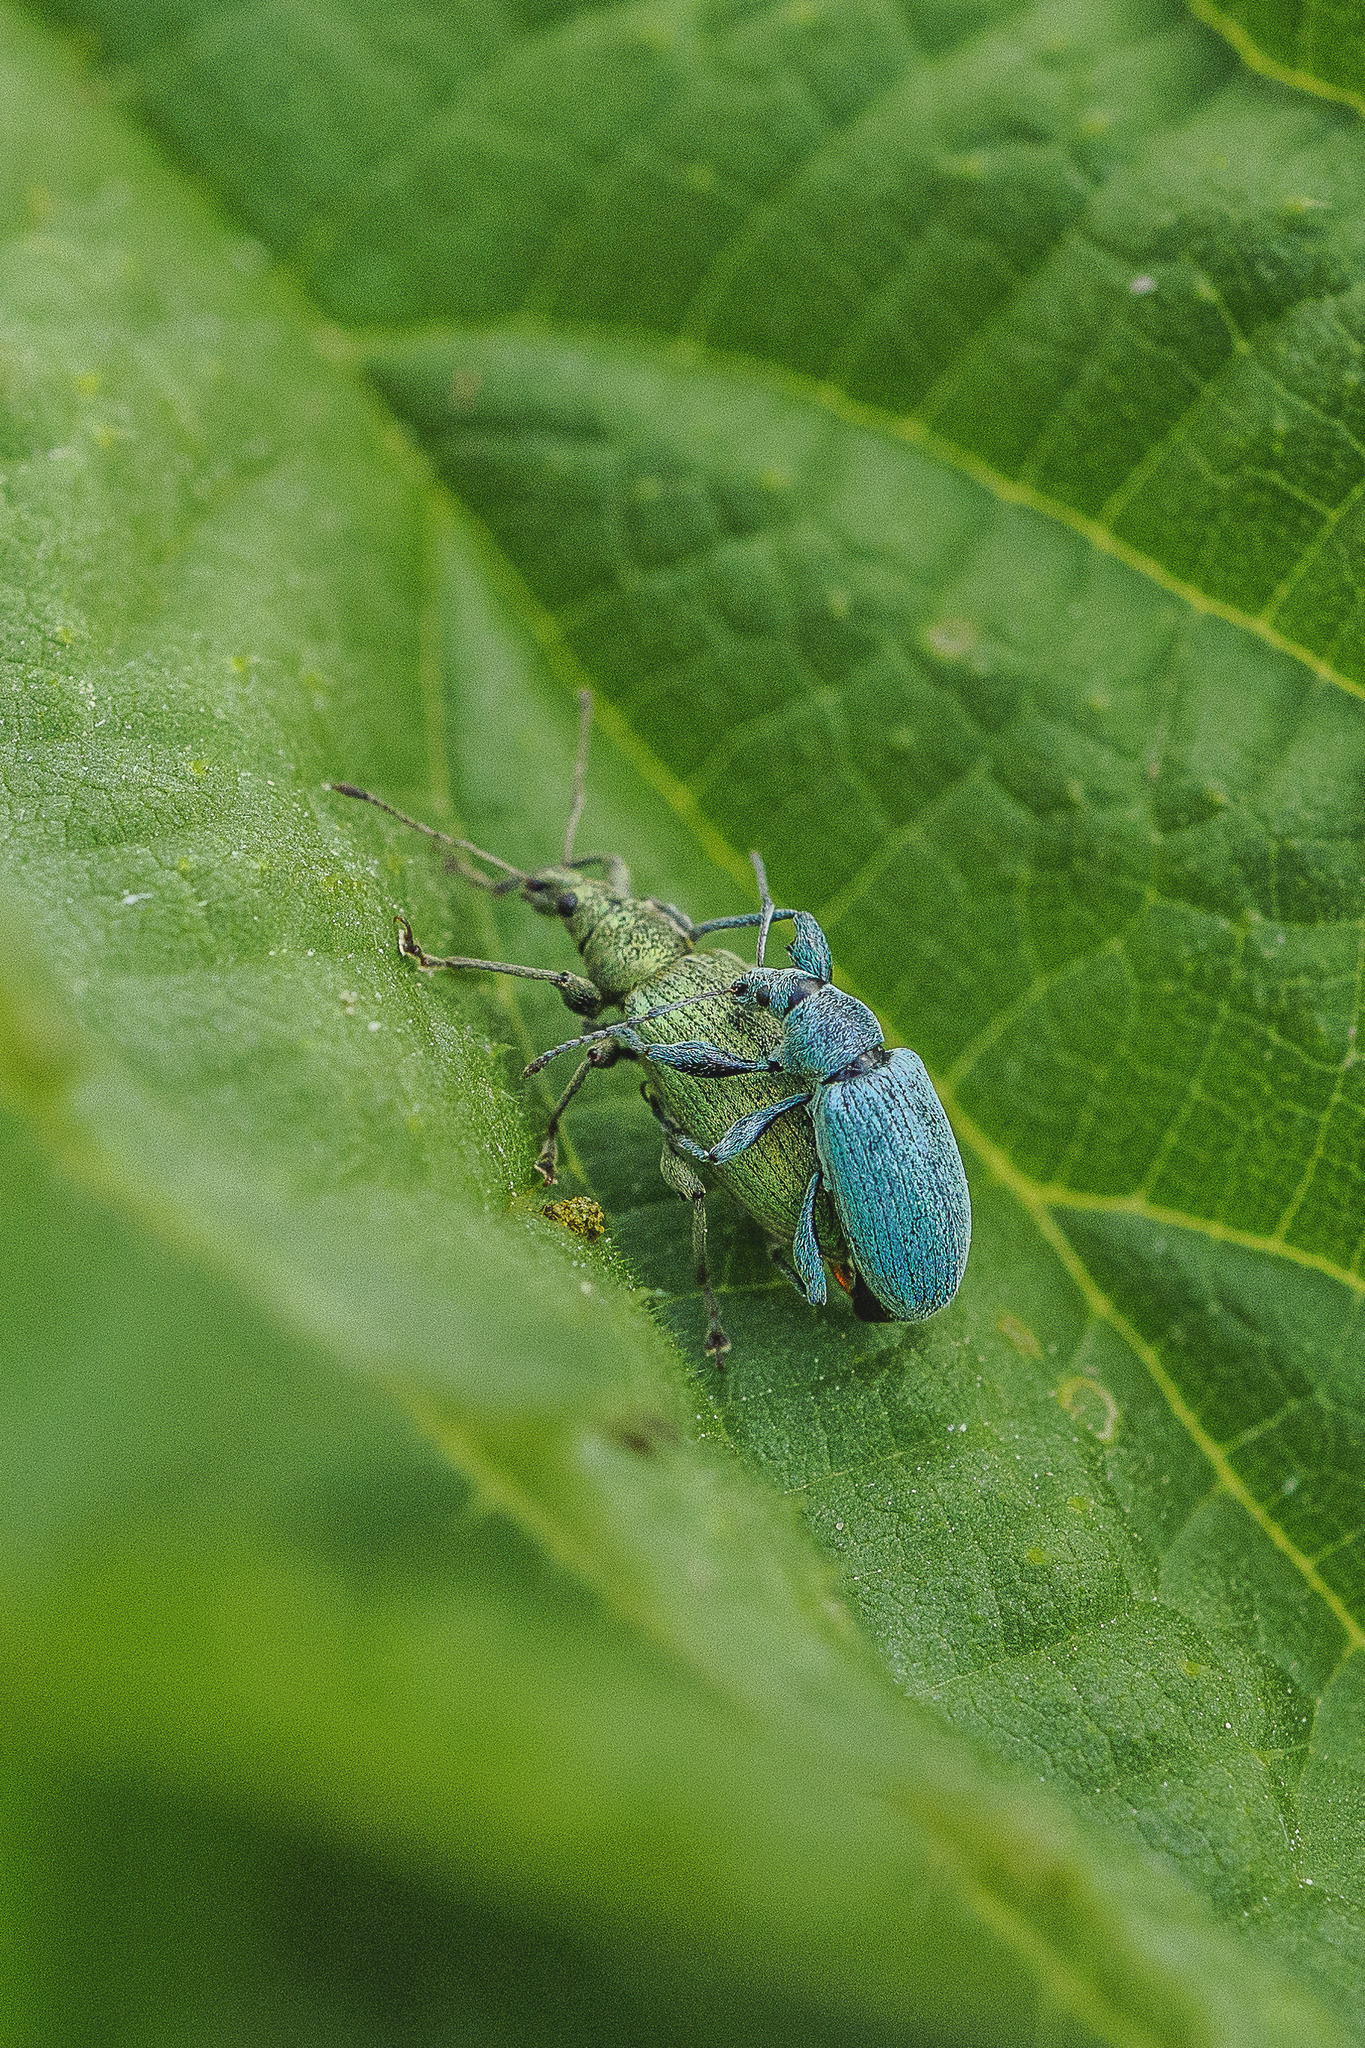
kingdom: Animalia
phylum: Arthropoda
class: Insecta
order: Coleoptera
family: Curculionidae
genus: Phyllobius
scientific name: Phyllobius pomaceus
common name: Green nettle weevil
